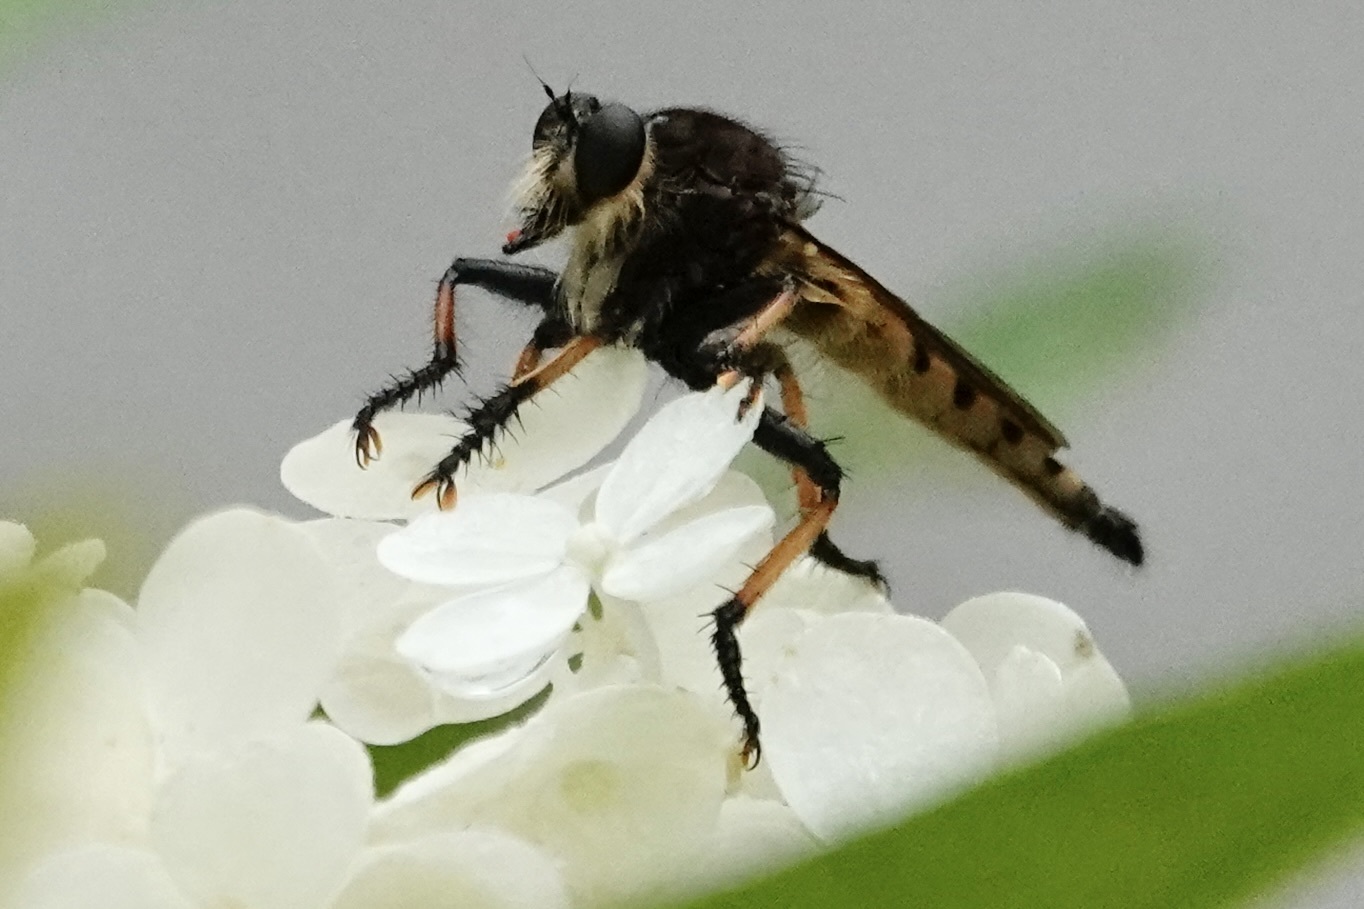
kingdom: Animalia
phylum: Arthropoda
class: Insecta
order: Diptera
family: Asilidae
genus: Promachus
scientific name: Promachus rufipes
